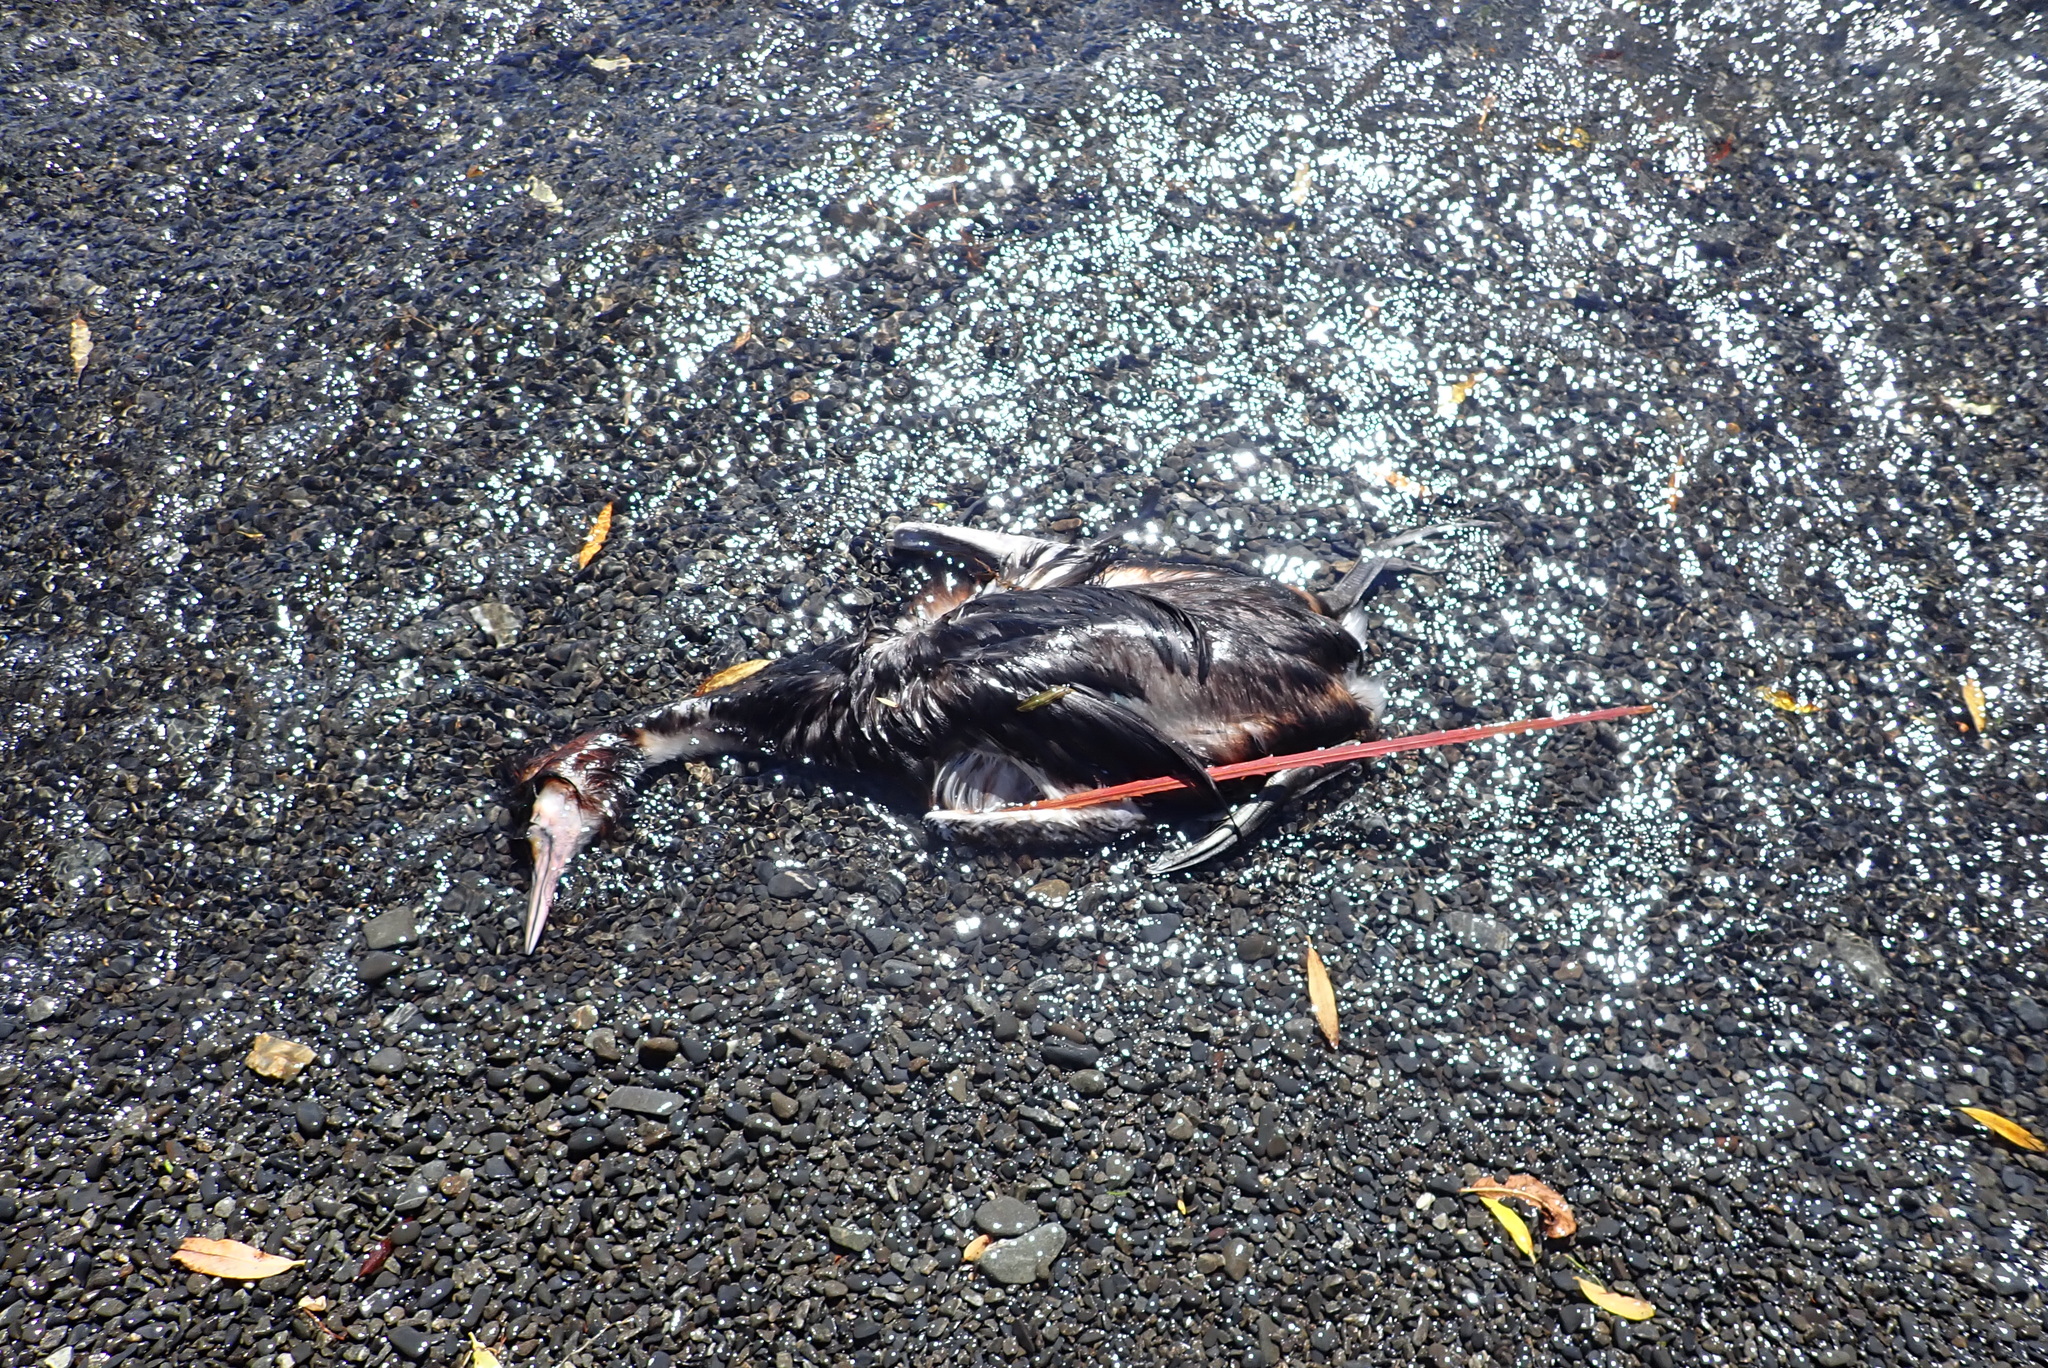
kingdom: Animalia
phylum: Chordata
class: Aves
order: Podicipediformes
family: Podicipedidae
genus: Podiceps
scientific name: Podiceps cristatus
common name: Great crested grebe
